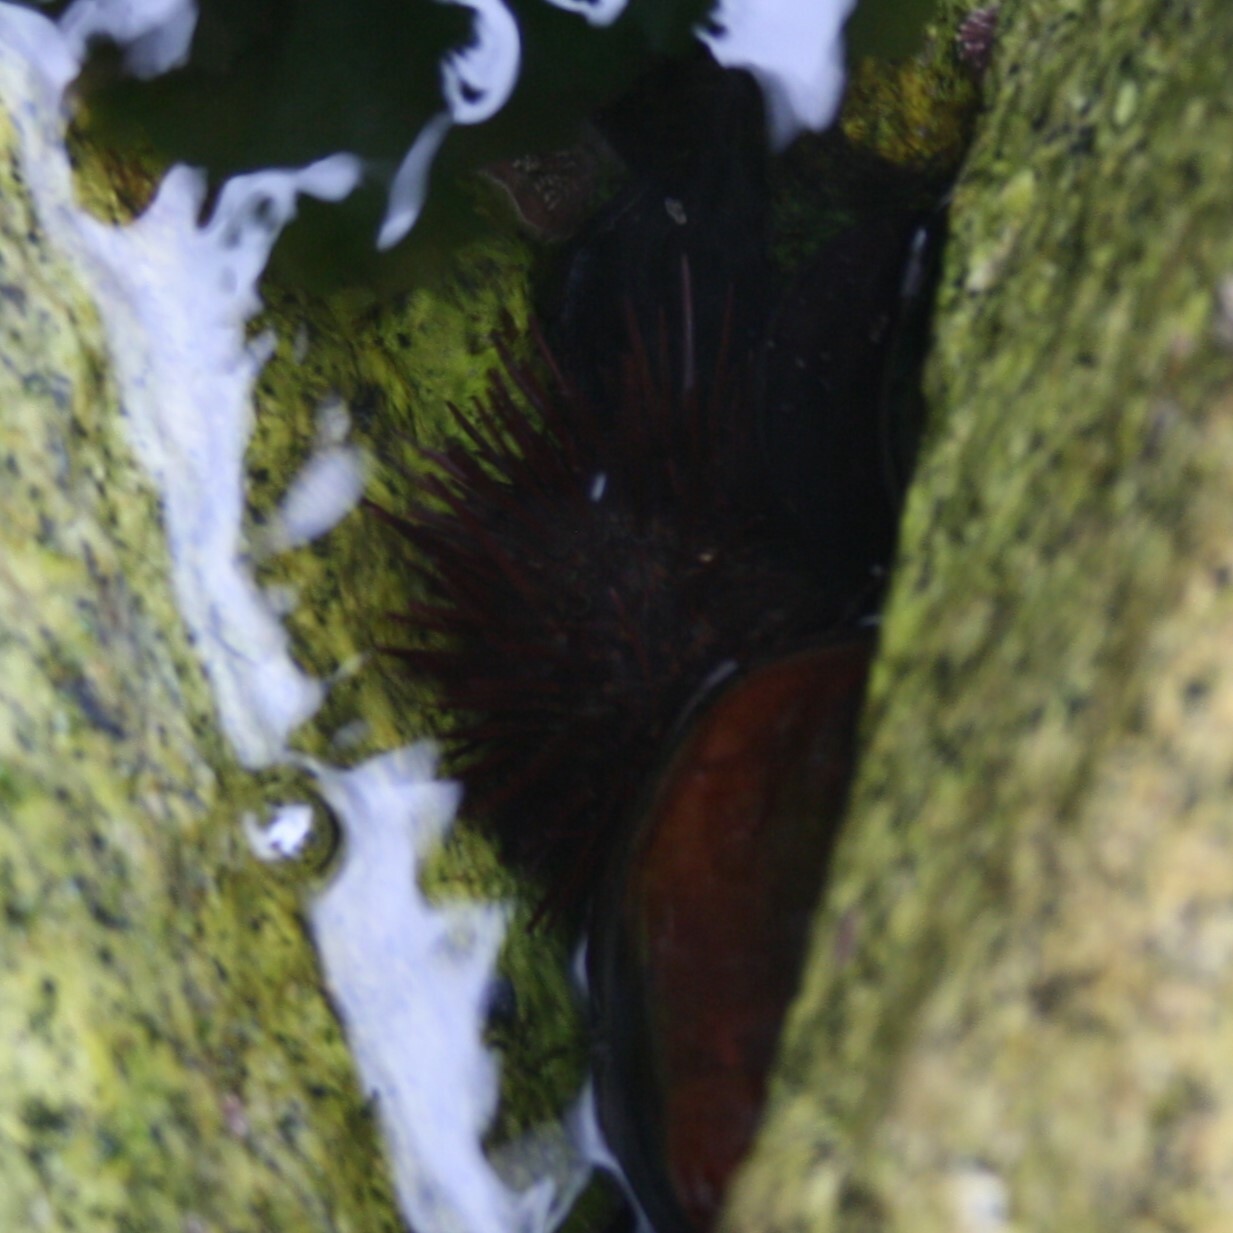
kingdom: Animalia
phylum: Echinodermata
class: Echinoidea
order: Camarodonta
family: Parechinidae
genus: Paracentrotus
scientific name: Paracentrotus lividus
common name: Purple sea urchin
